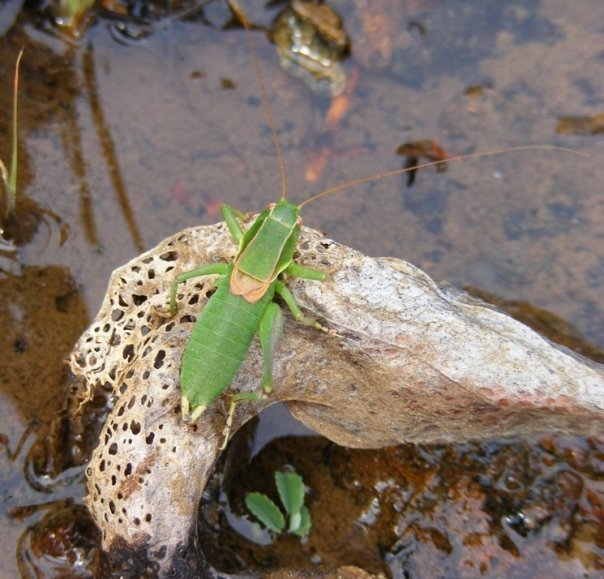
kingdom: Animalia
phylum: Arthropoda
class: Insecta
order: Orthoptera
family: Tettigoniidae
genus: Idiostatus
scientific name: Idiostatus gurneyi
